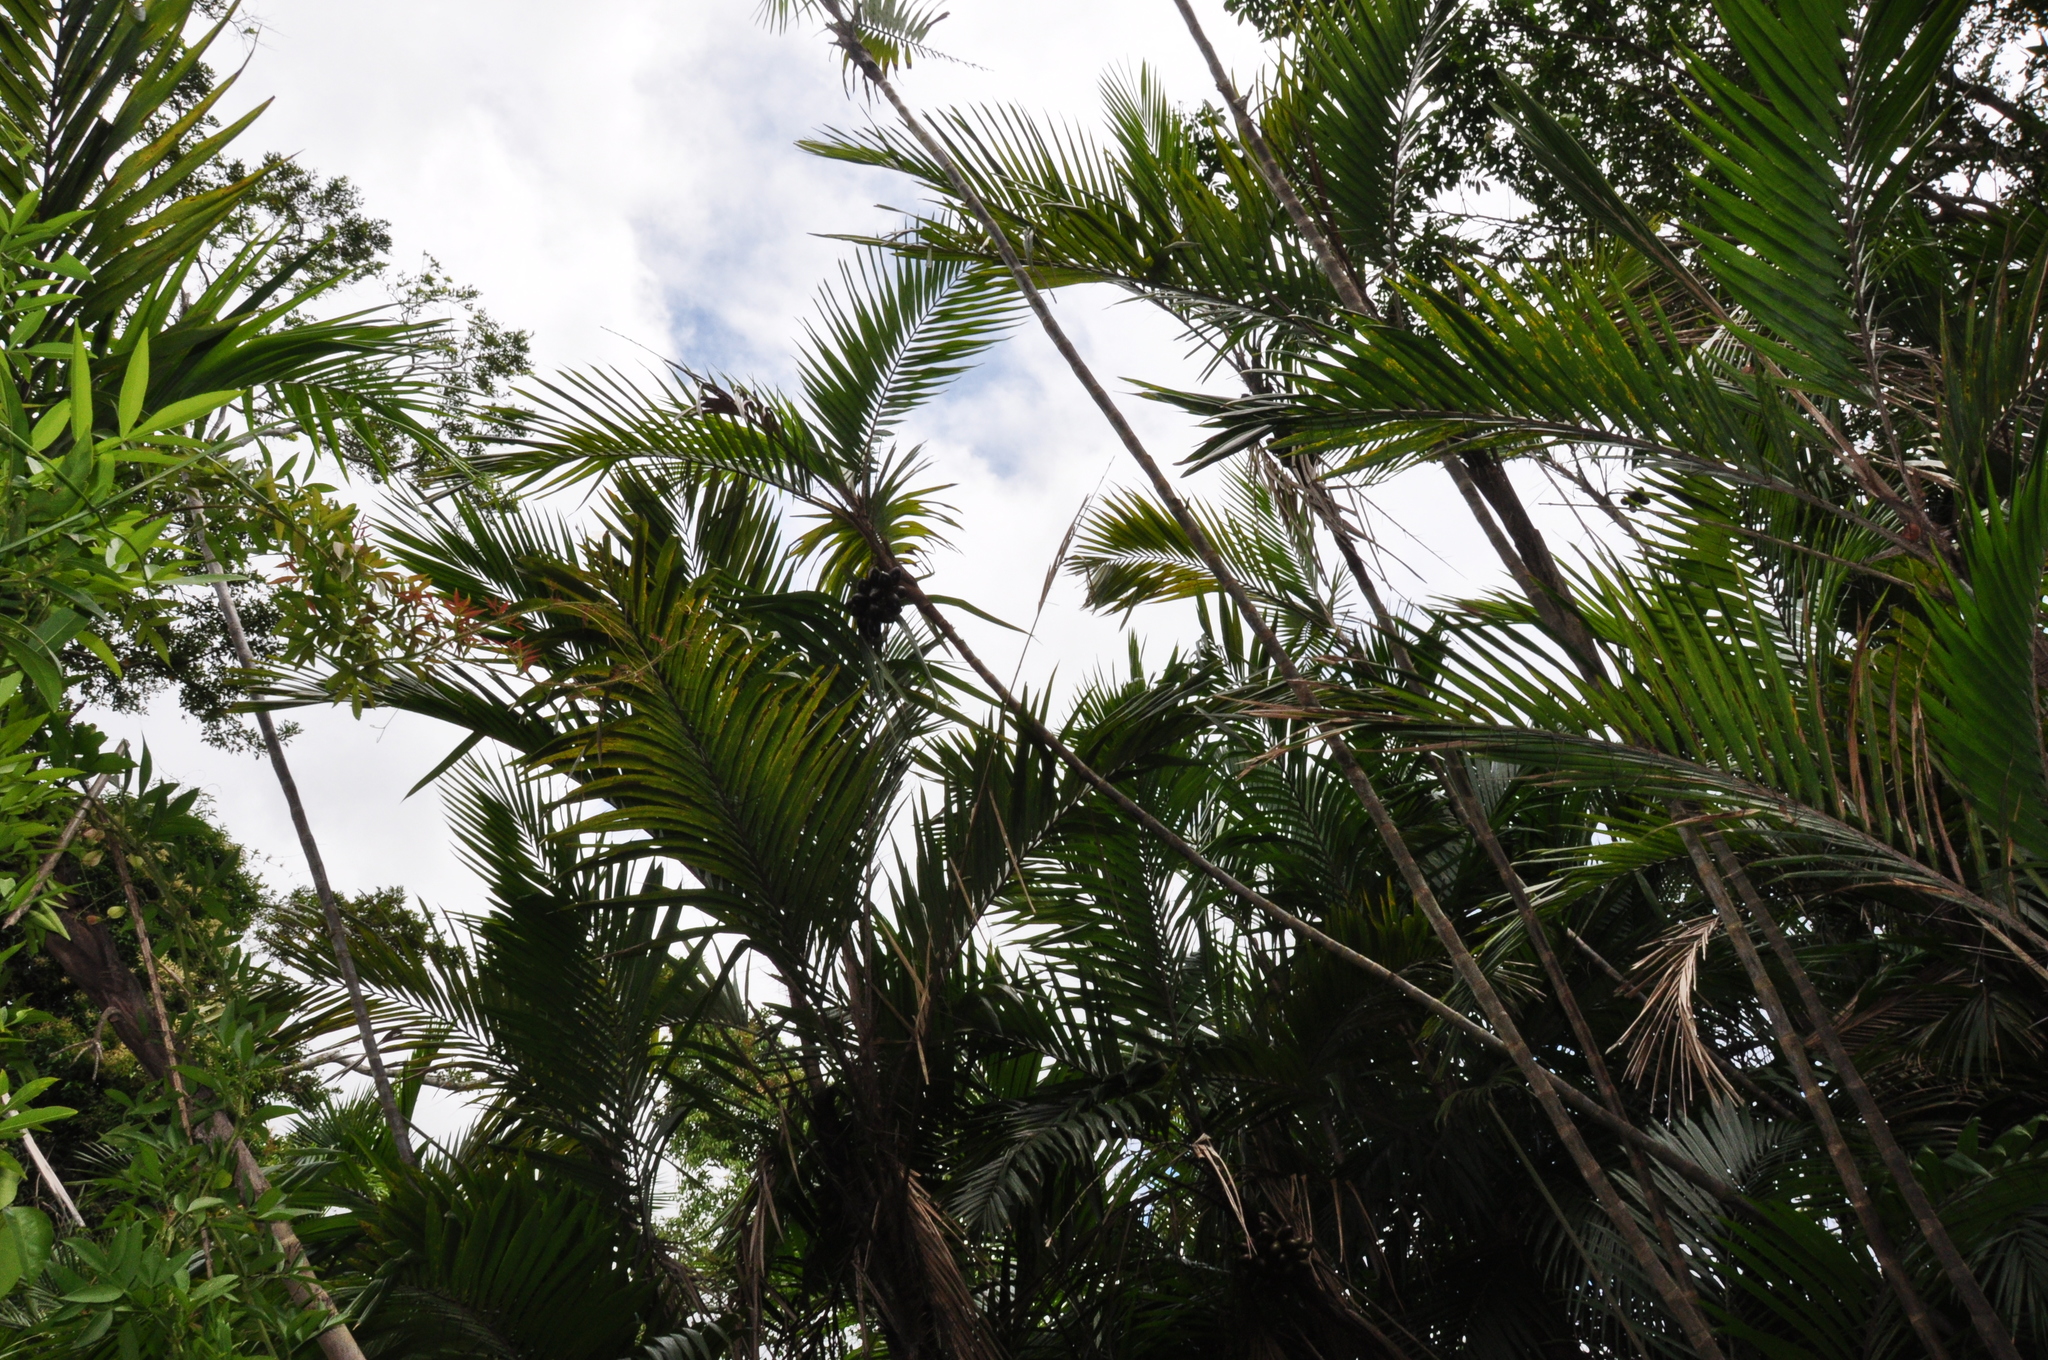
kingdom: Plantae
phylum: Tracheophyta
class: Liliopsida
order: Arecales
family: Arecaceae
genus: Bactris
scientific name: Bactris baculifera
